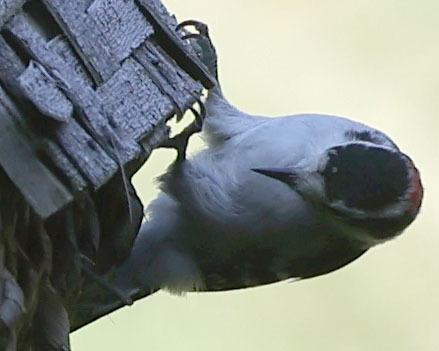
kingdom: Animalia
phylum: Chordata
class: Aves
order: Piciformes
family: Picidae
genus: Dryobates
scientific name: Dryobates pubescens
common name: Downy woodpecker
